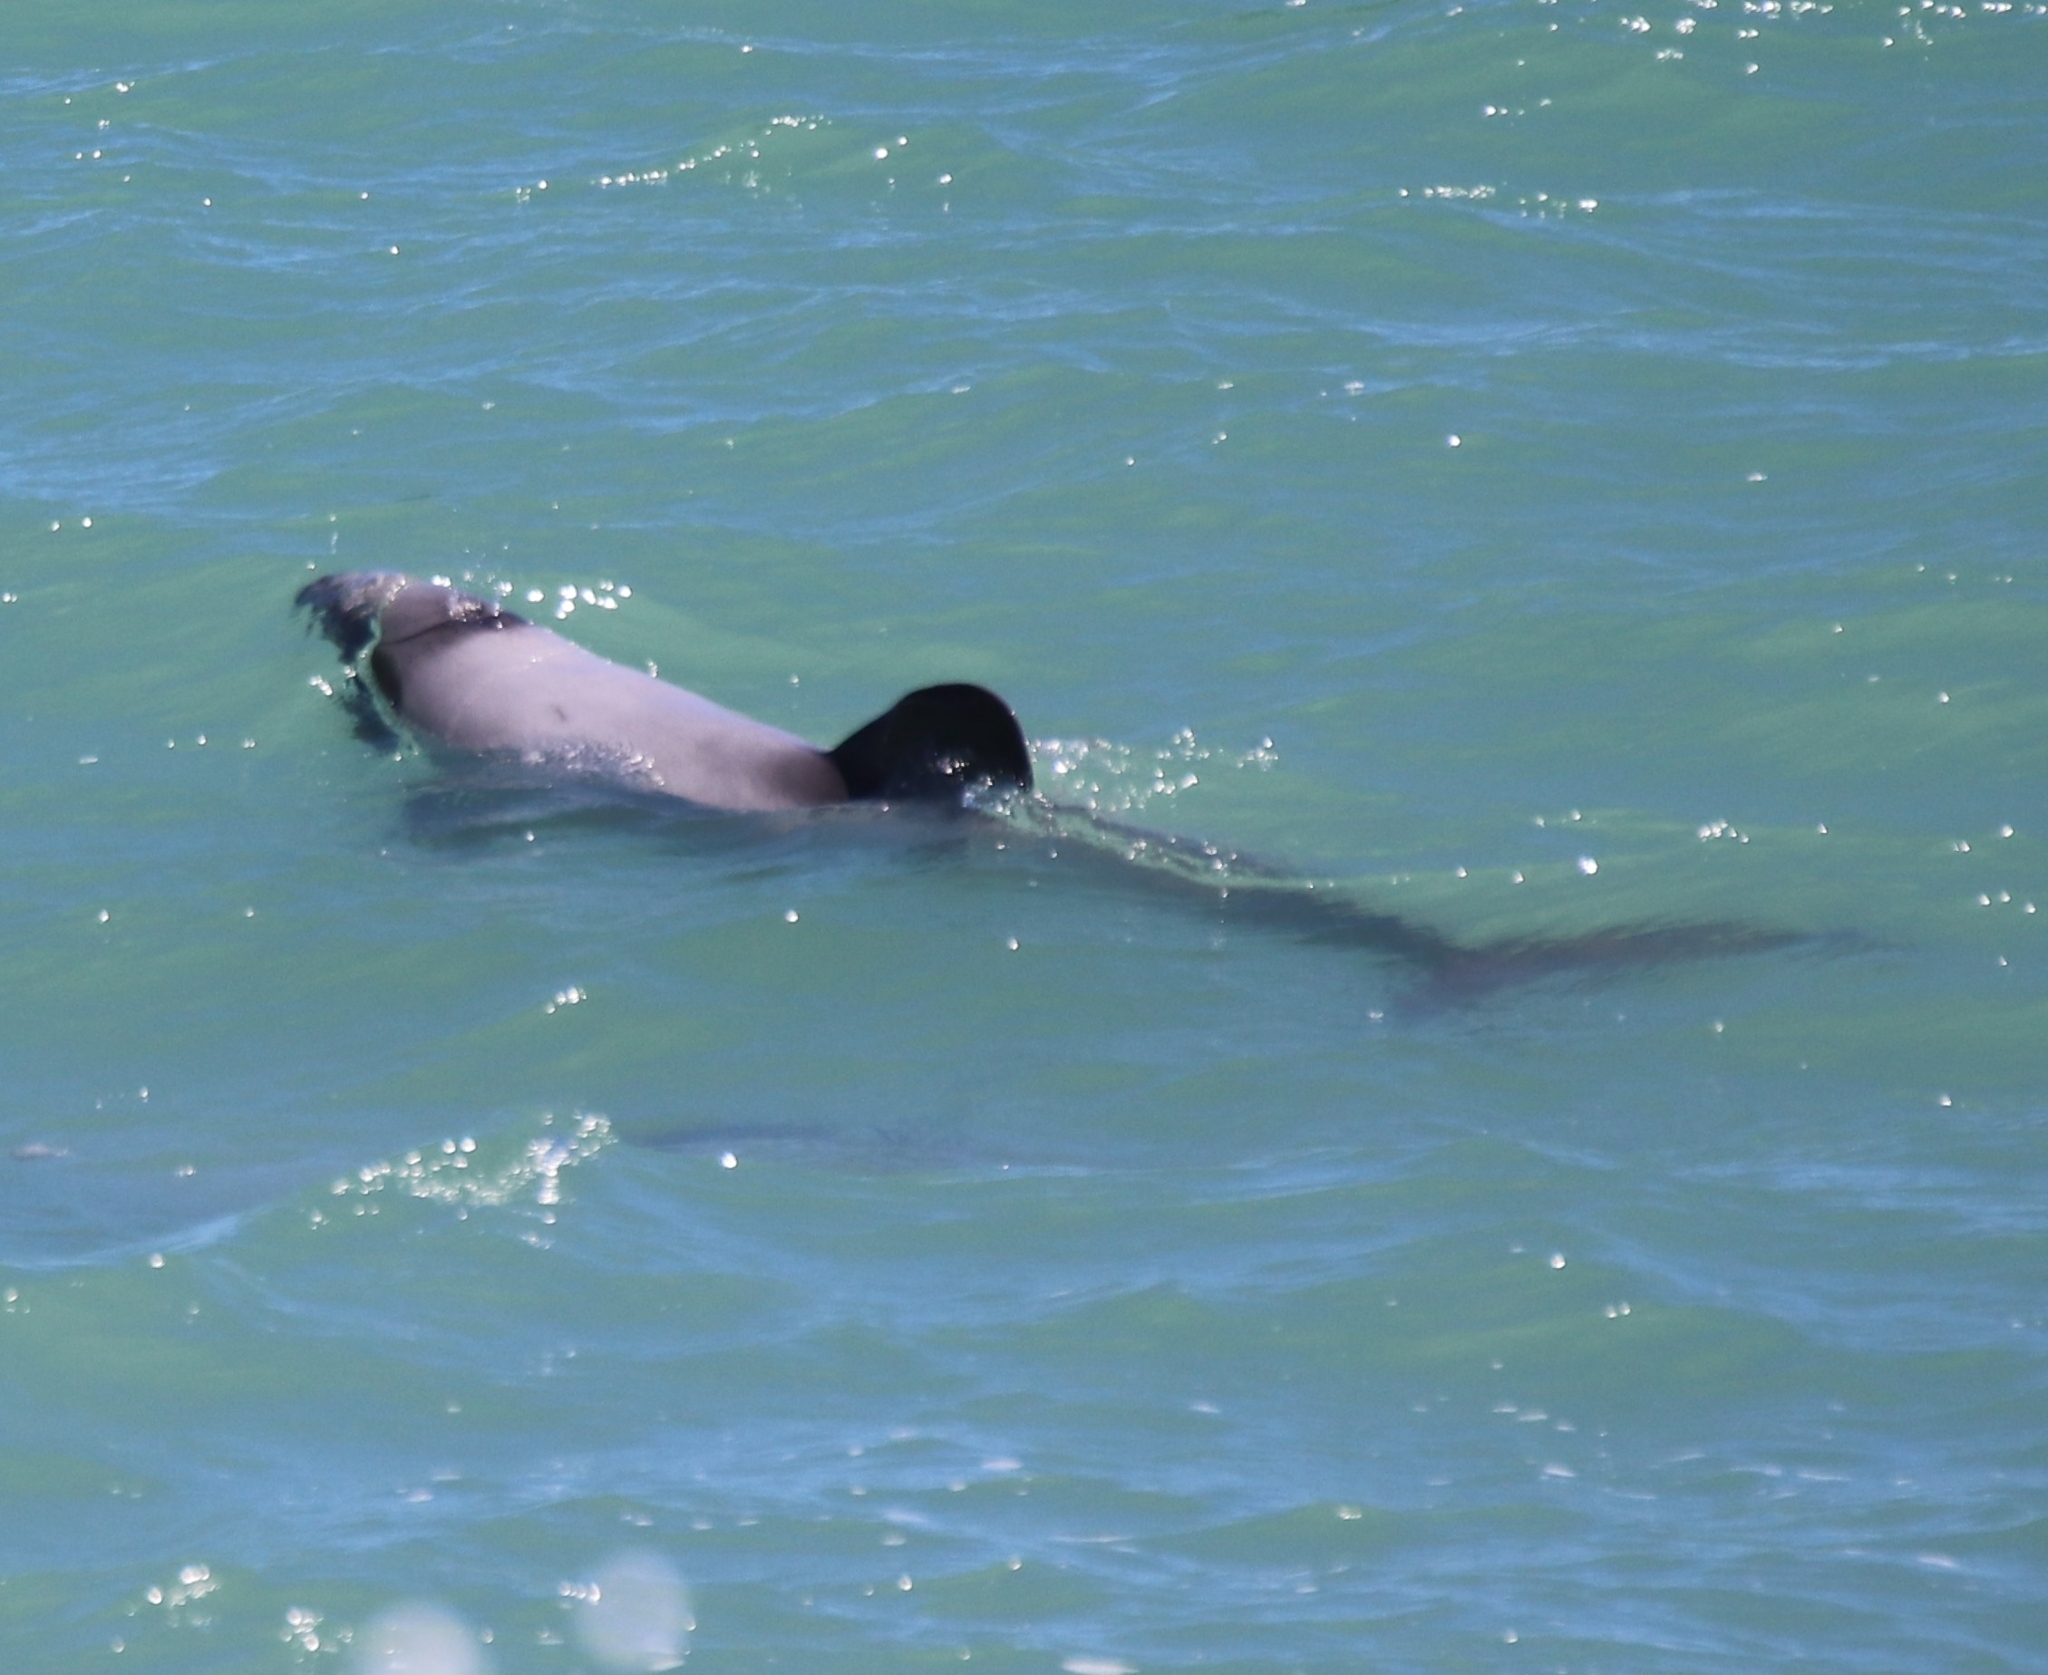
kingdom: Animalia
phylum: Chordata
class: Mammalia
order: Cetacea
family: Delphinidae
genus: Cephalorhynchus
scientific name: Cephalorhynchus hectori
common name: Hector's dolphin
